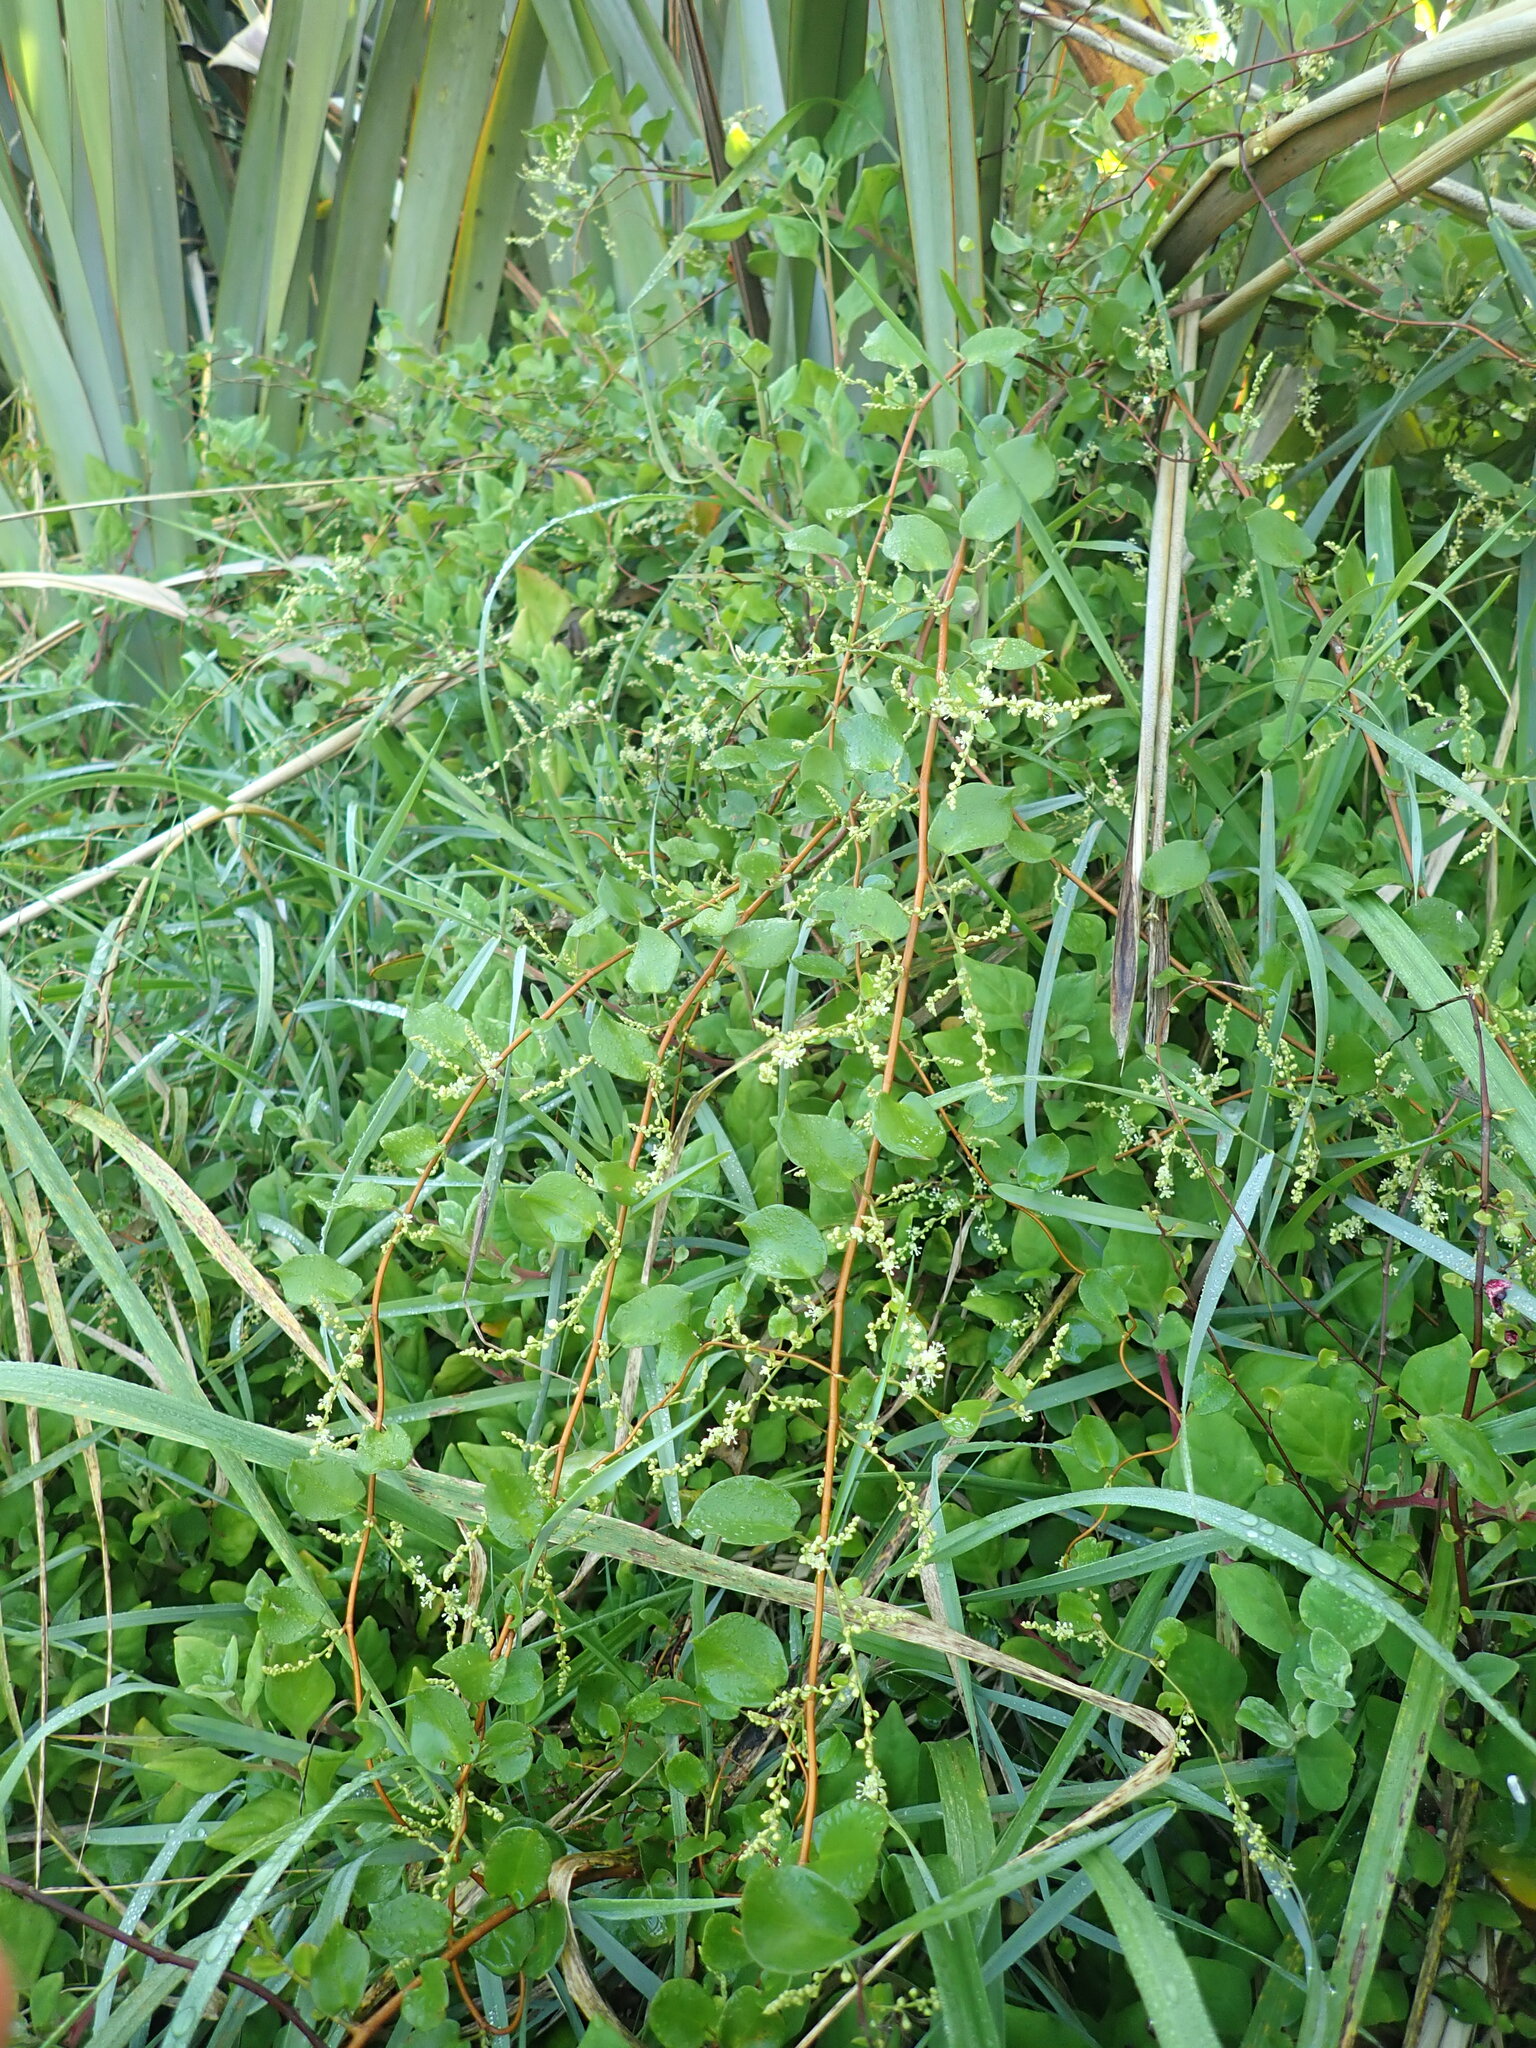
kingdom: Plantae
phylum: Tracheophyta
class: Magnoliopsida
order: Caryophyllales
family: Polygonaceae
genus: Muehlenbeckia
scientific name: Muehlenbeckia australis
